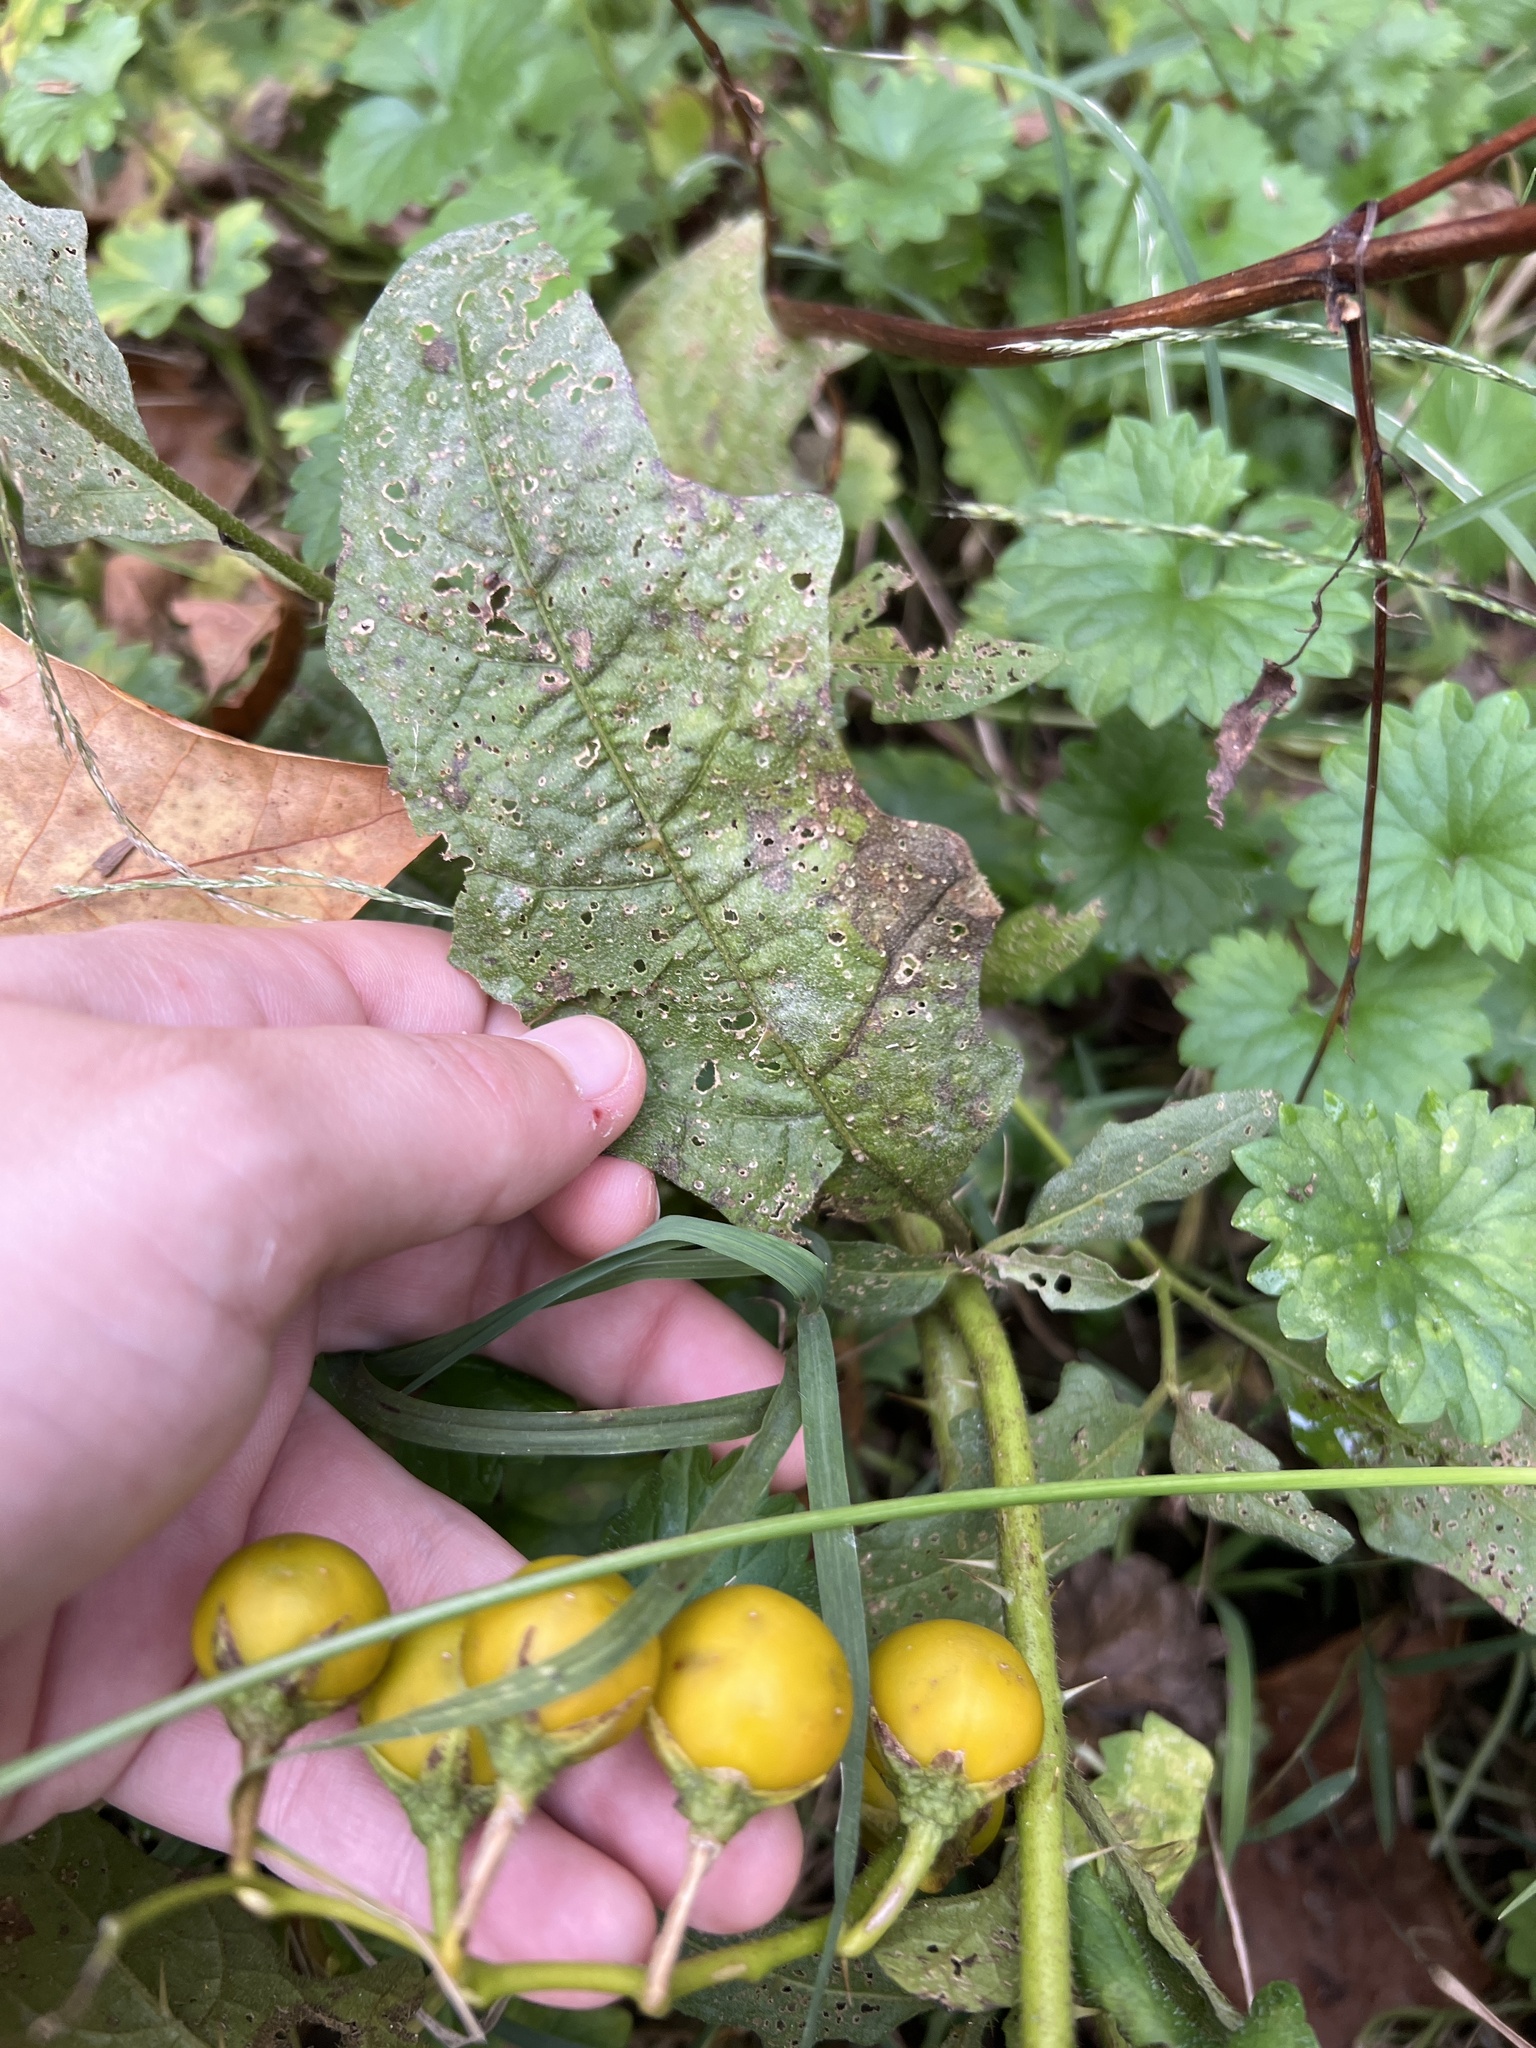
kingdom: Plantae
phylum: Tracheophyta
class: Magnoliopsida
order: Solanales
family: Solanaceae
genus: Solanum
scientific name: Solanum carolinense
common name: Horse-nettle
